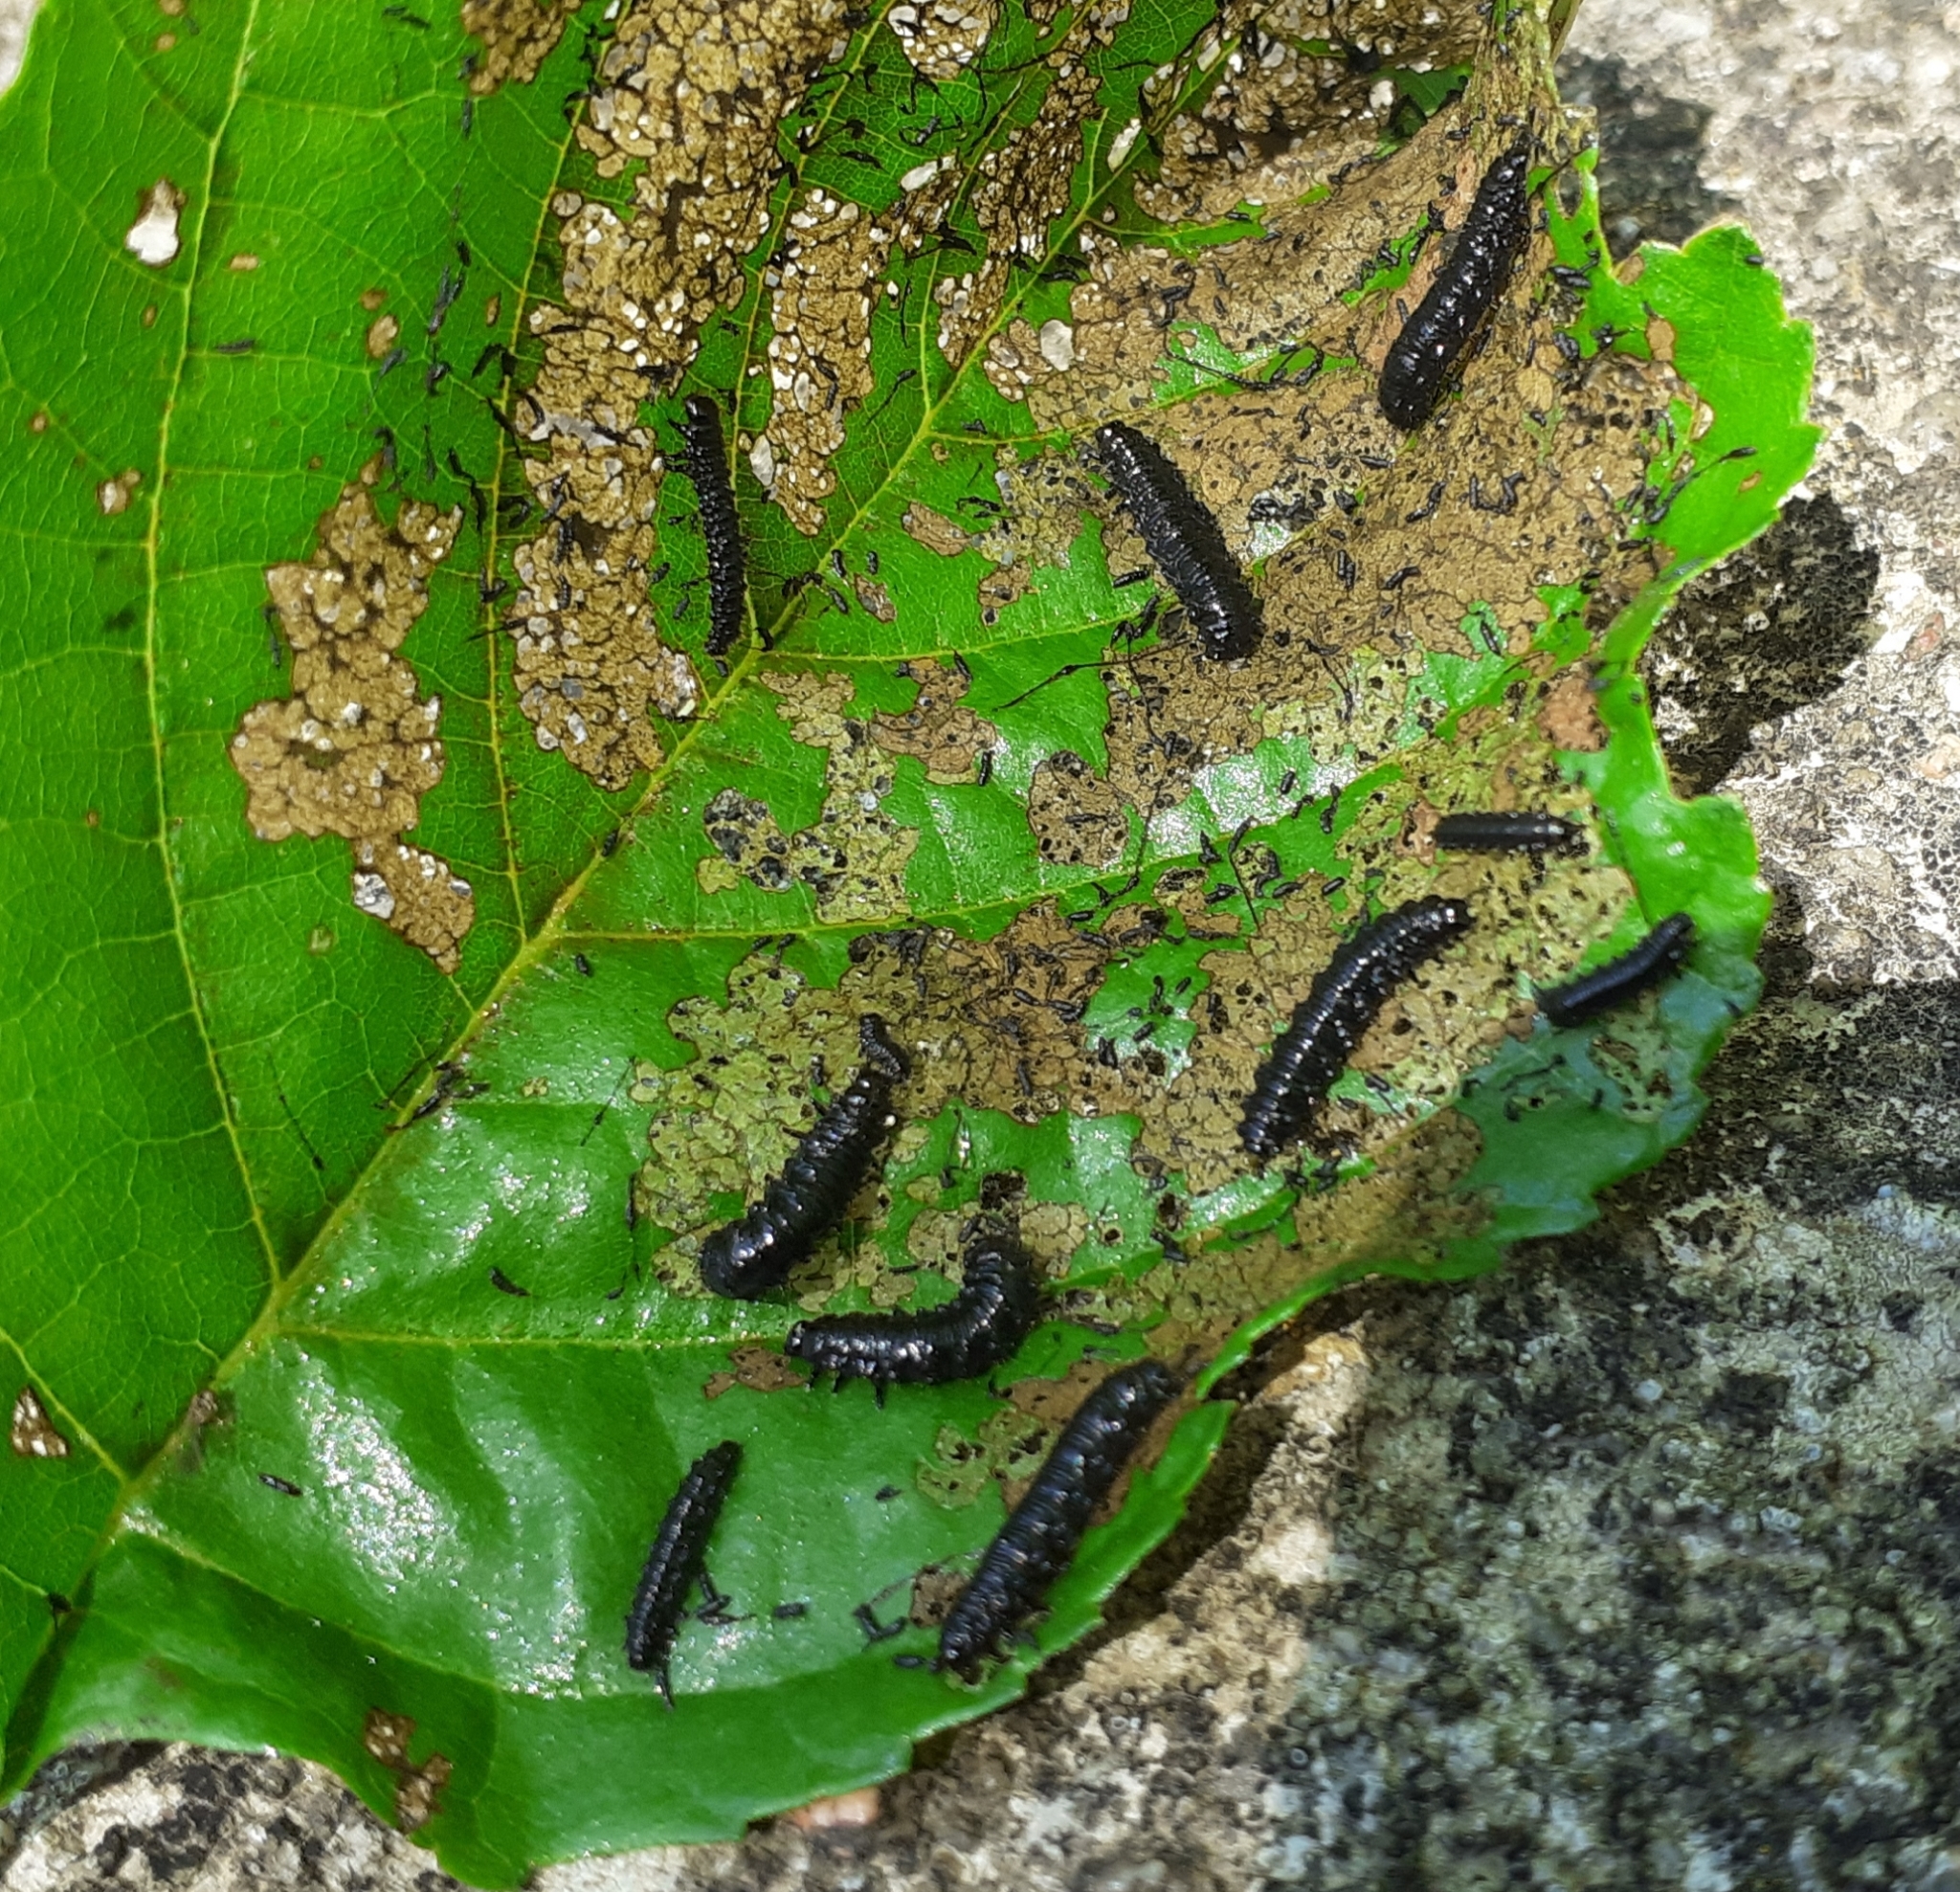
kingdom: Animalia
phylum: Arthropoda
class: Insecta
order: Coleoptera
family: Chrysomelidae
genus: Agelastica
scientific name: Agelastica alni
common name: Alder leaf beetle
